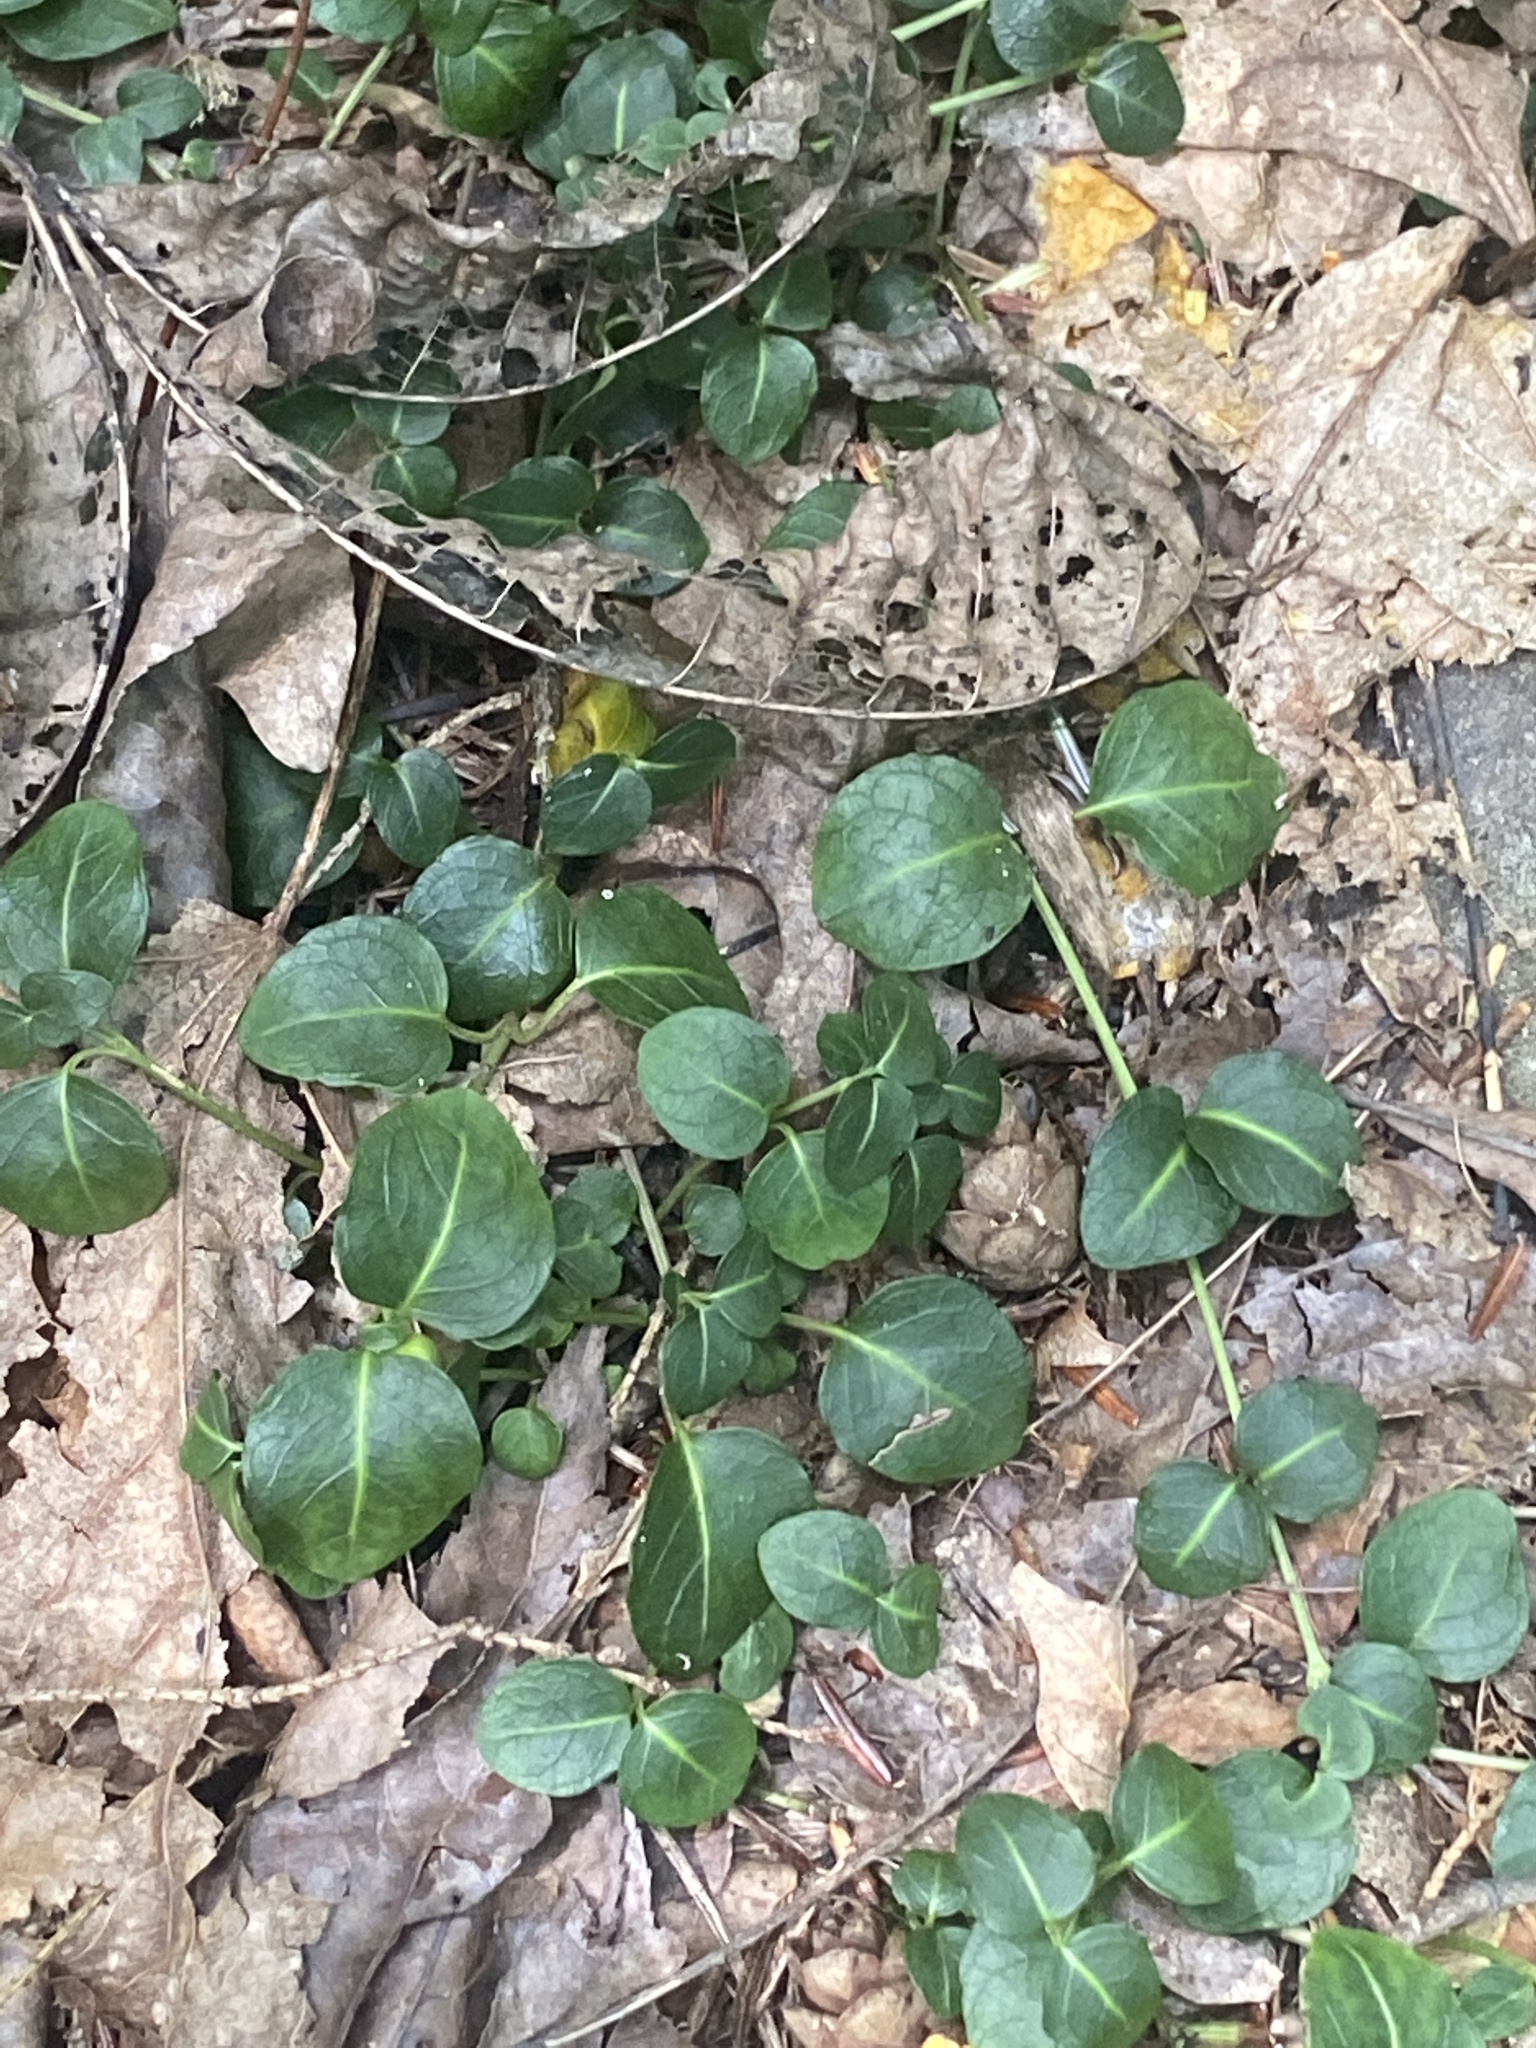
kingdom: Plantae
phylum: Tracheophyta
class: Magnoliopsida
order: Gentianales
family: Rubiaceae
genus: Mitchella
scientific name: Mitchella repens
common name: Partridge-berry
